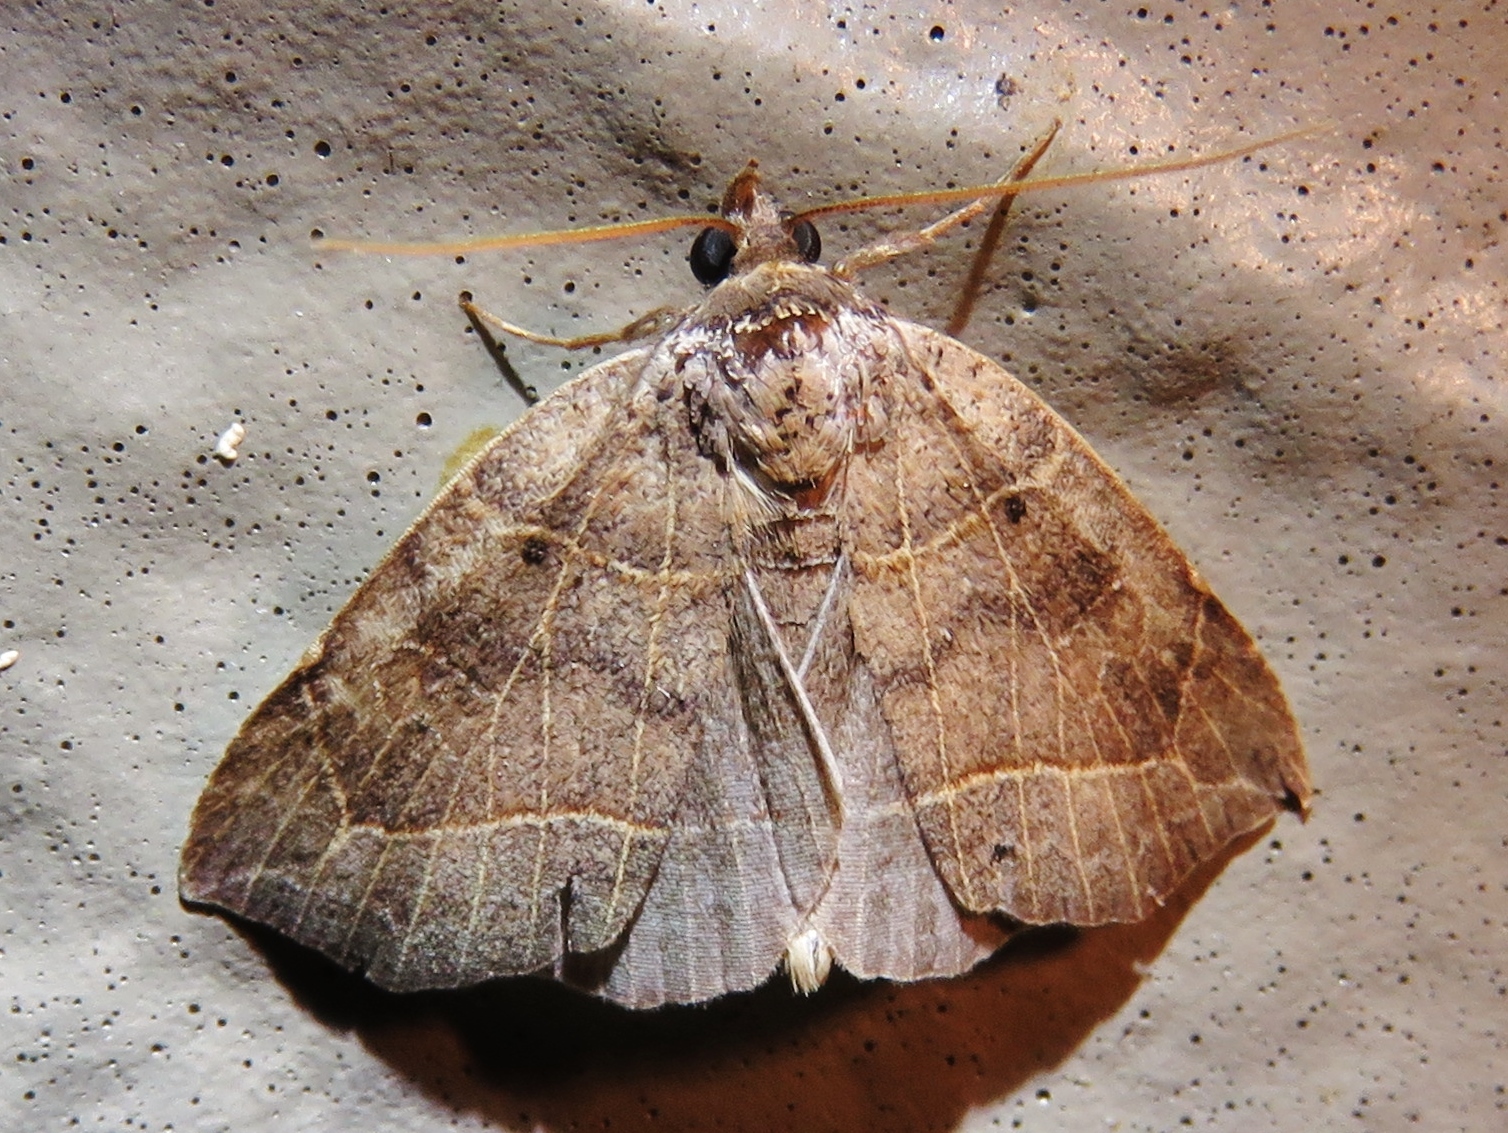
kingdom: Animalia
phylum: Arthropoda
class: Insecta
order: Lepidoptera
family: Erebidae
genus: Isogona
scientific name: Isogona tenuis
